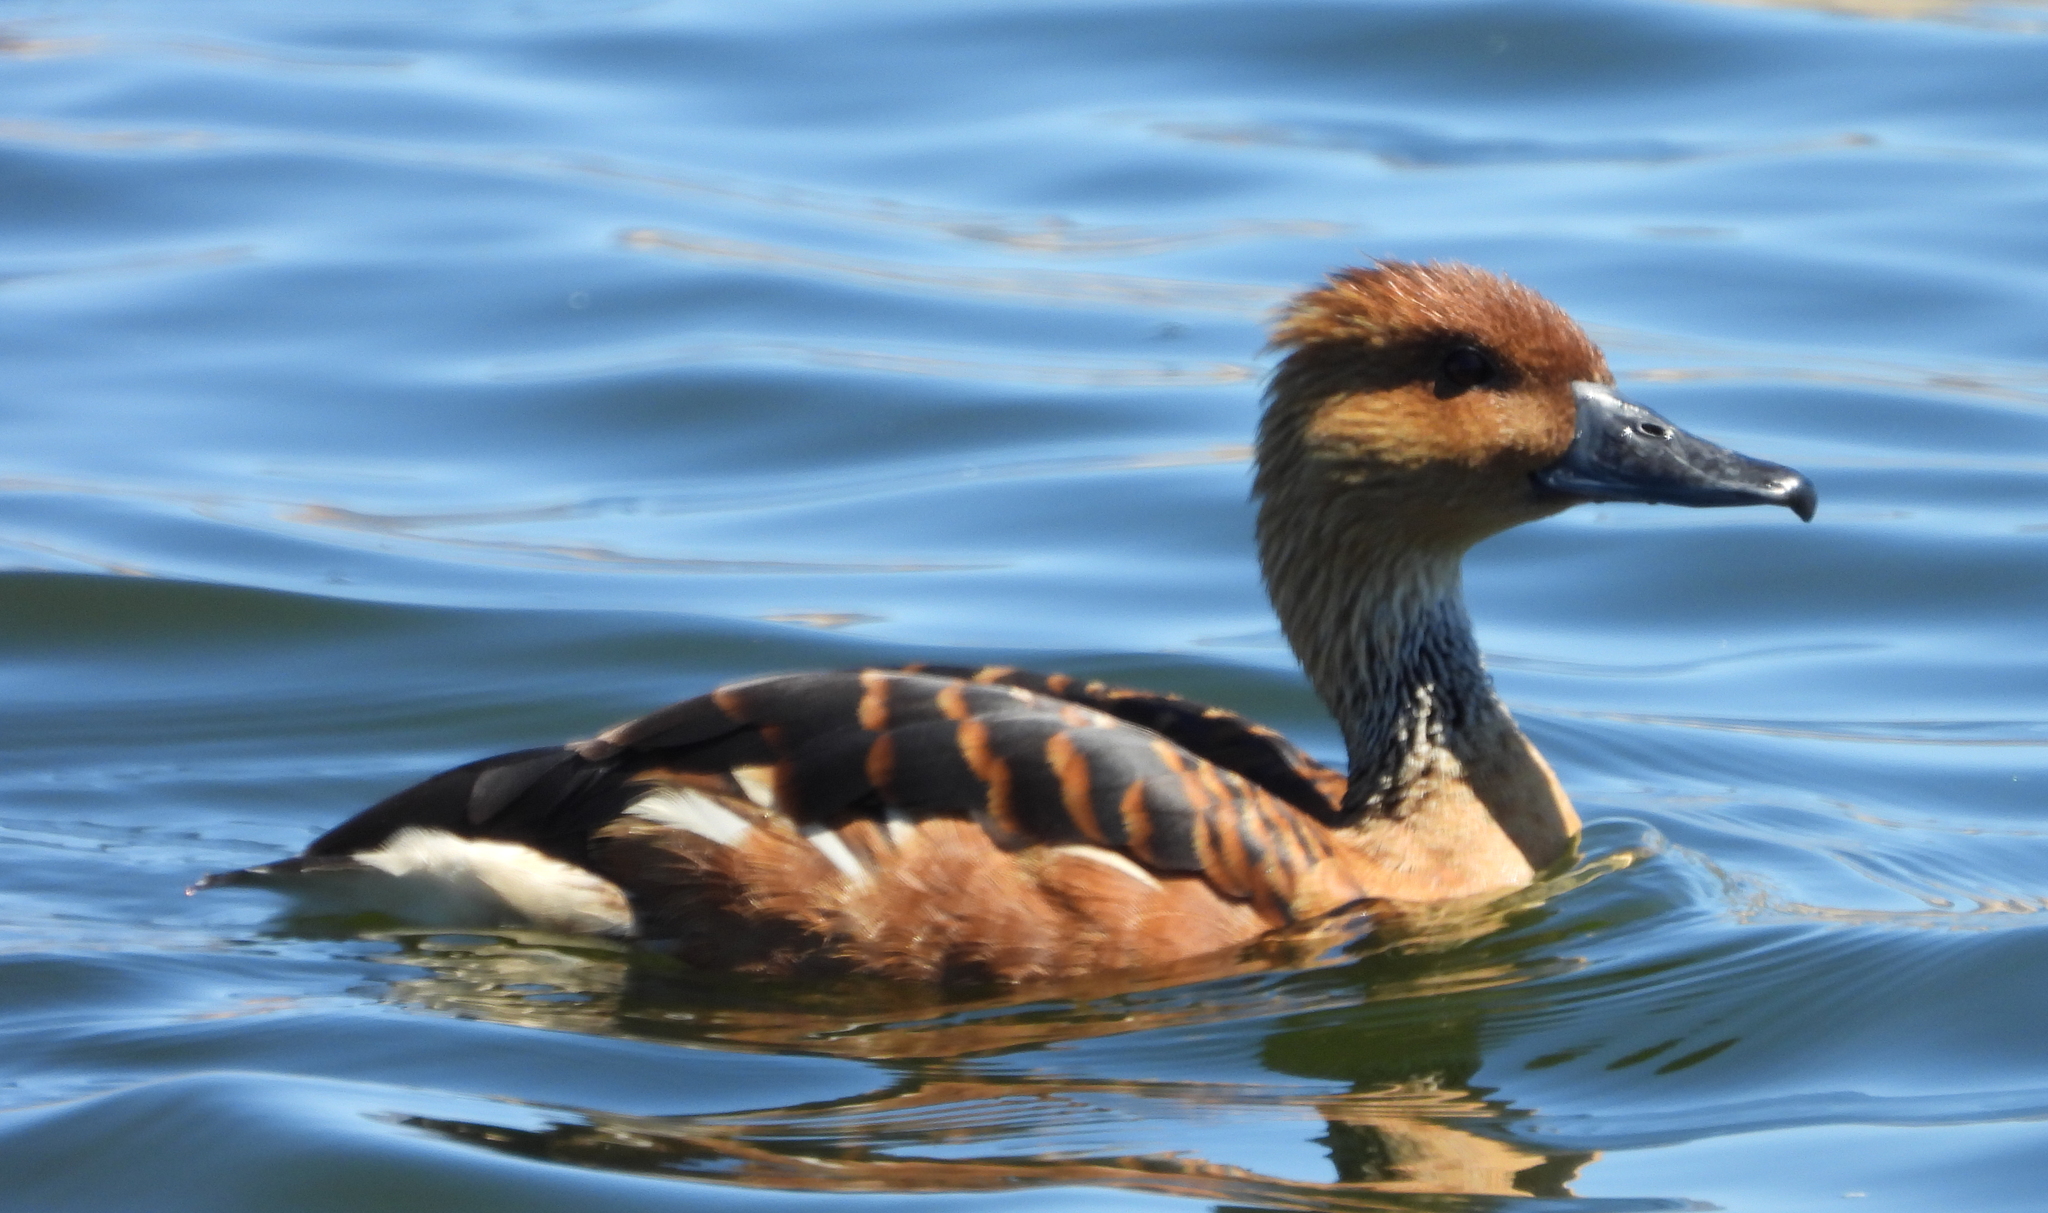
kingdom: Animalia
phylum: Chordata
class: Aves
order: Anseriformes
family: Anatidae
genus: Dendrocygna
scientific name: Dendrocygna bicolor
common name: Fulvous whistling duck
